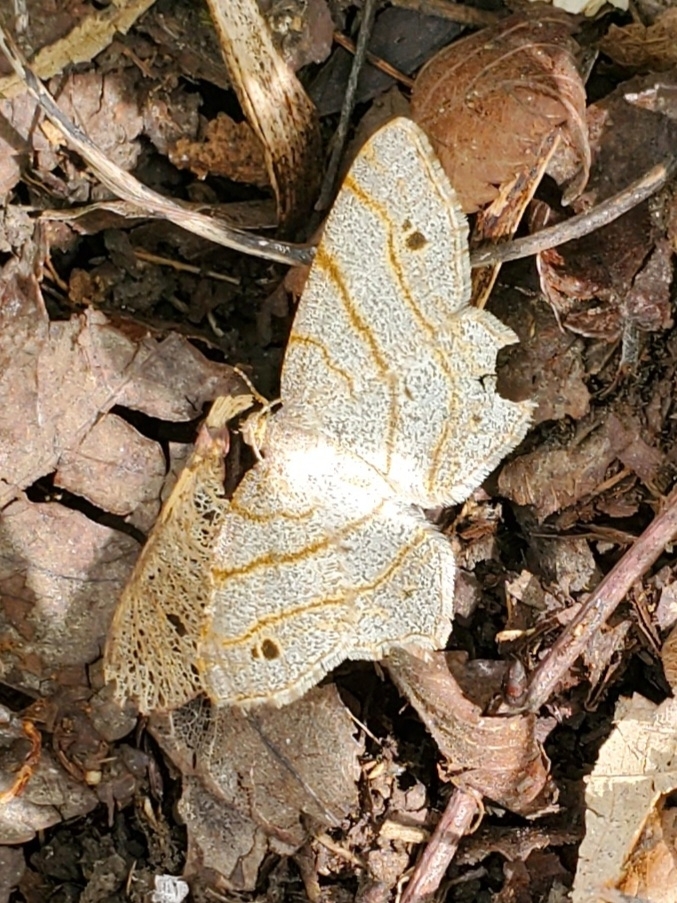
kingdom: Animalia
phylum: Arthropoda
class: Insecta
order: Lepidoptera
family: Geometridae
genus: Trigrammia
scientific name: Trigrammia quadrinotaria
